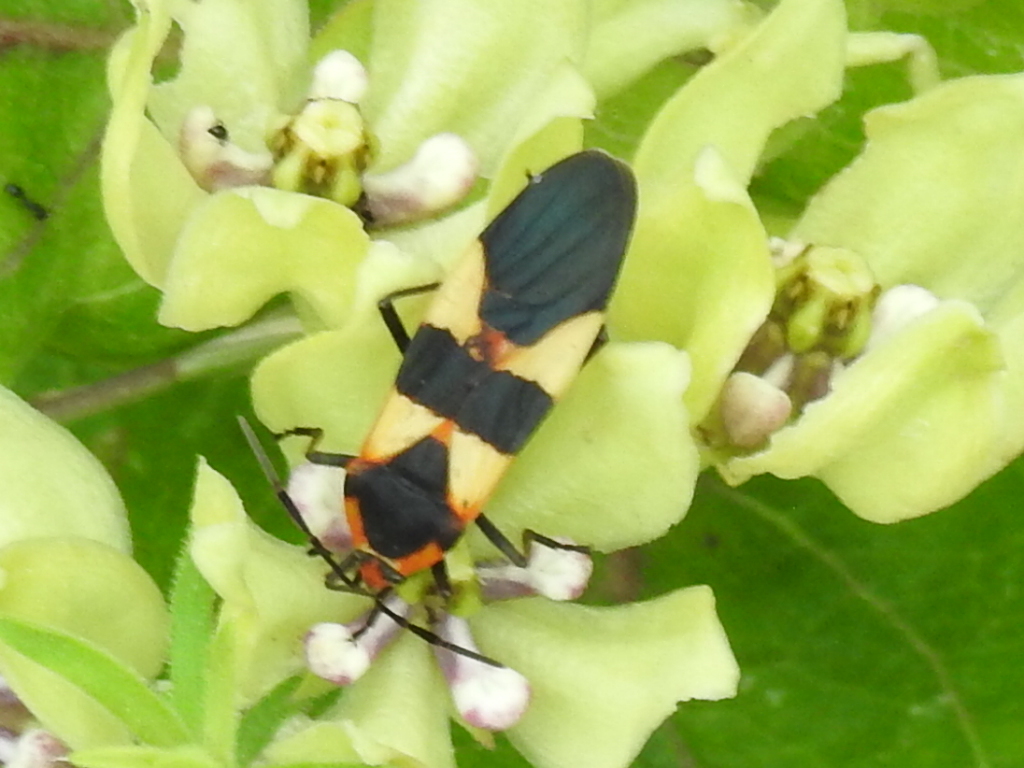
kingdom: Animalia
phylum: Arthropoda
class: Insecta
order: Hemiptera
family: Lygaeidae
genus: Oncopeltus
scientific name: Oncopeltus fasciatus
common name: Large milkweed bug
